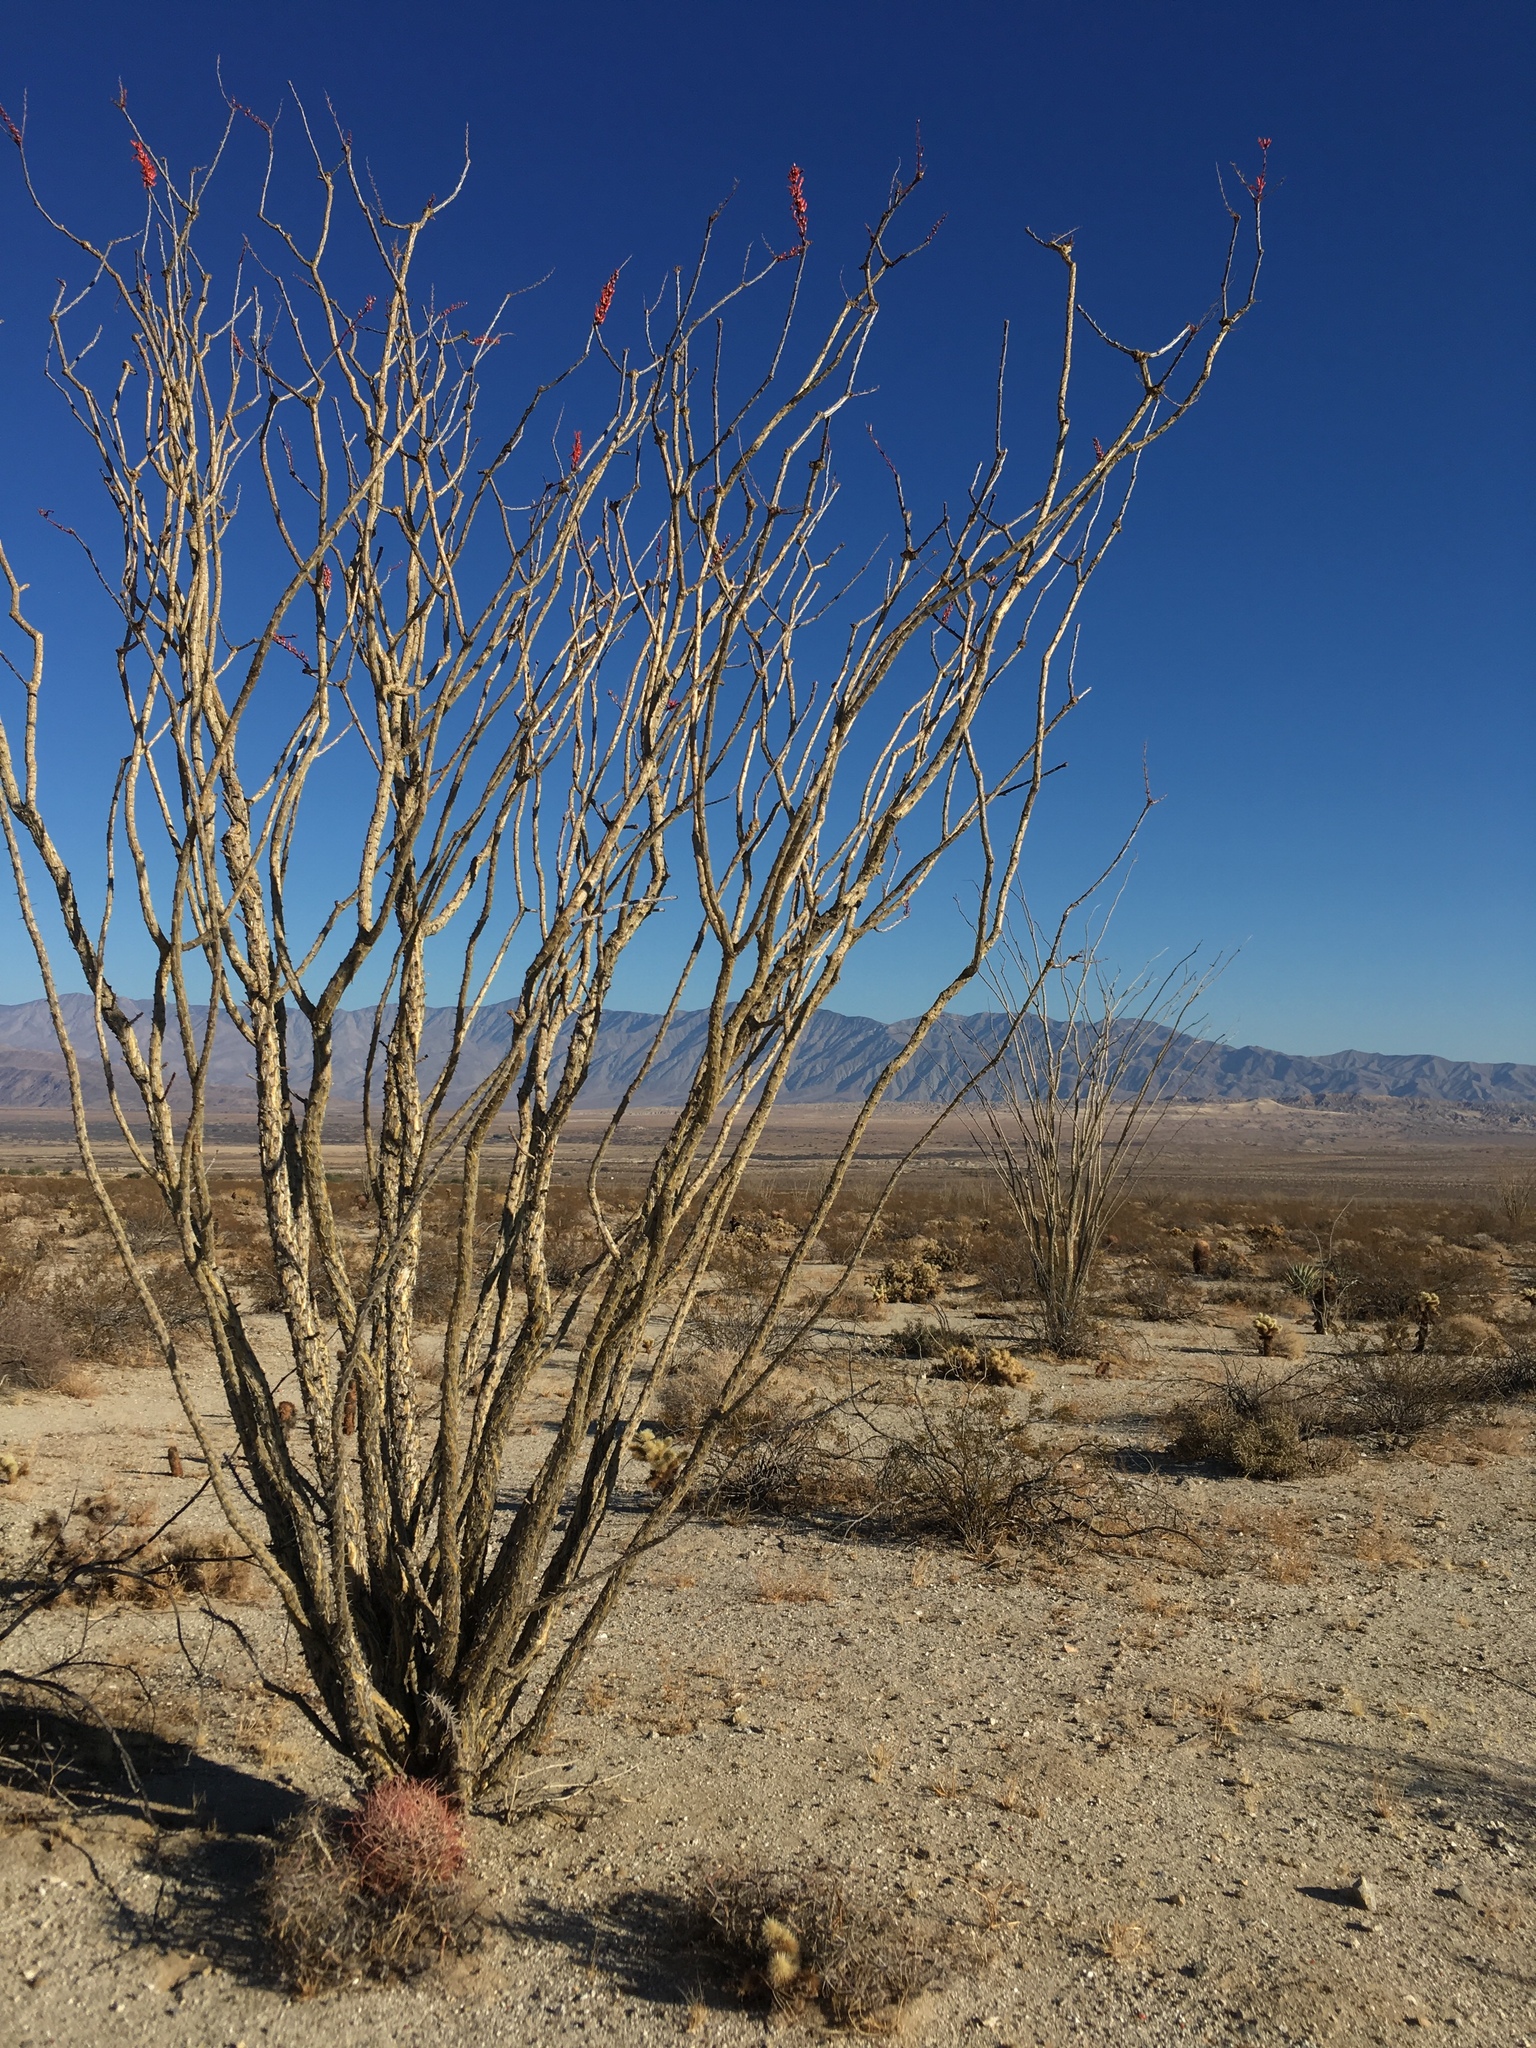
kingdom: Plantae
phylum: Tracheophyta
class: Magnoliopsida
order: Ericales
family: Fouquieriaceae
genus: Fouquieria
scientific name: Fouquieria splendens
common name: Vine-cactus
